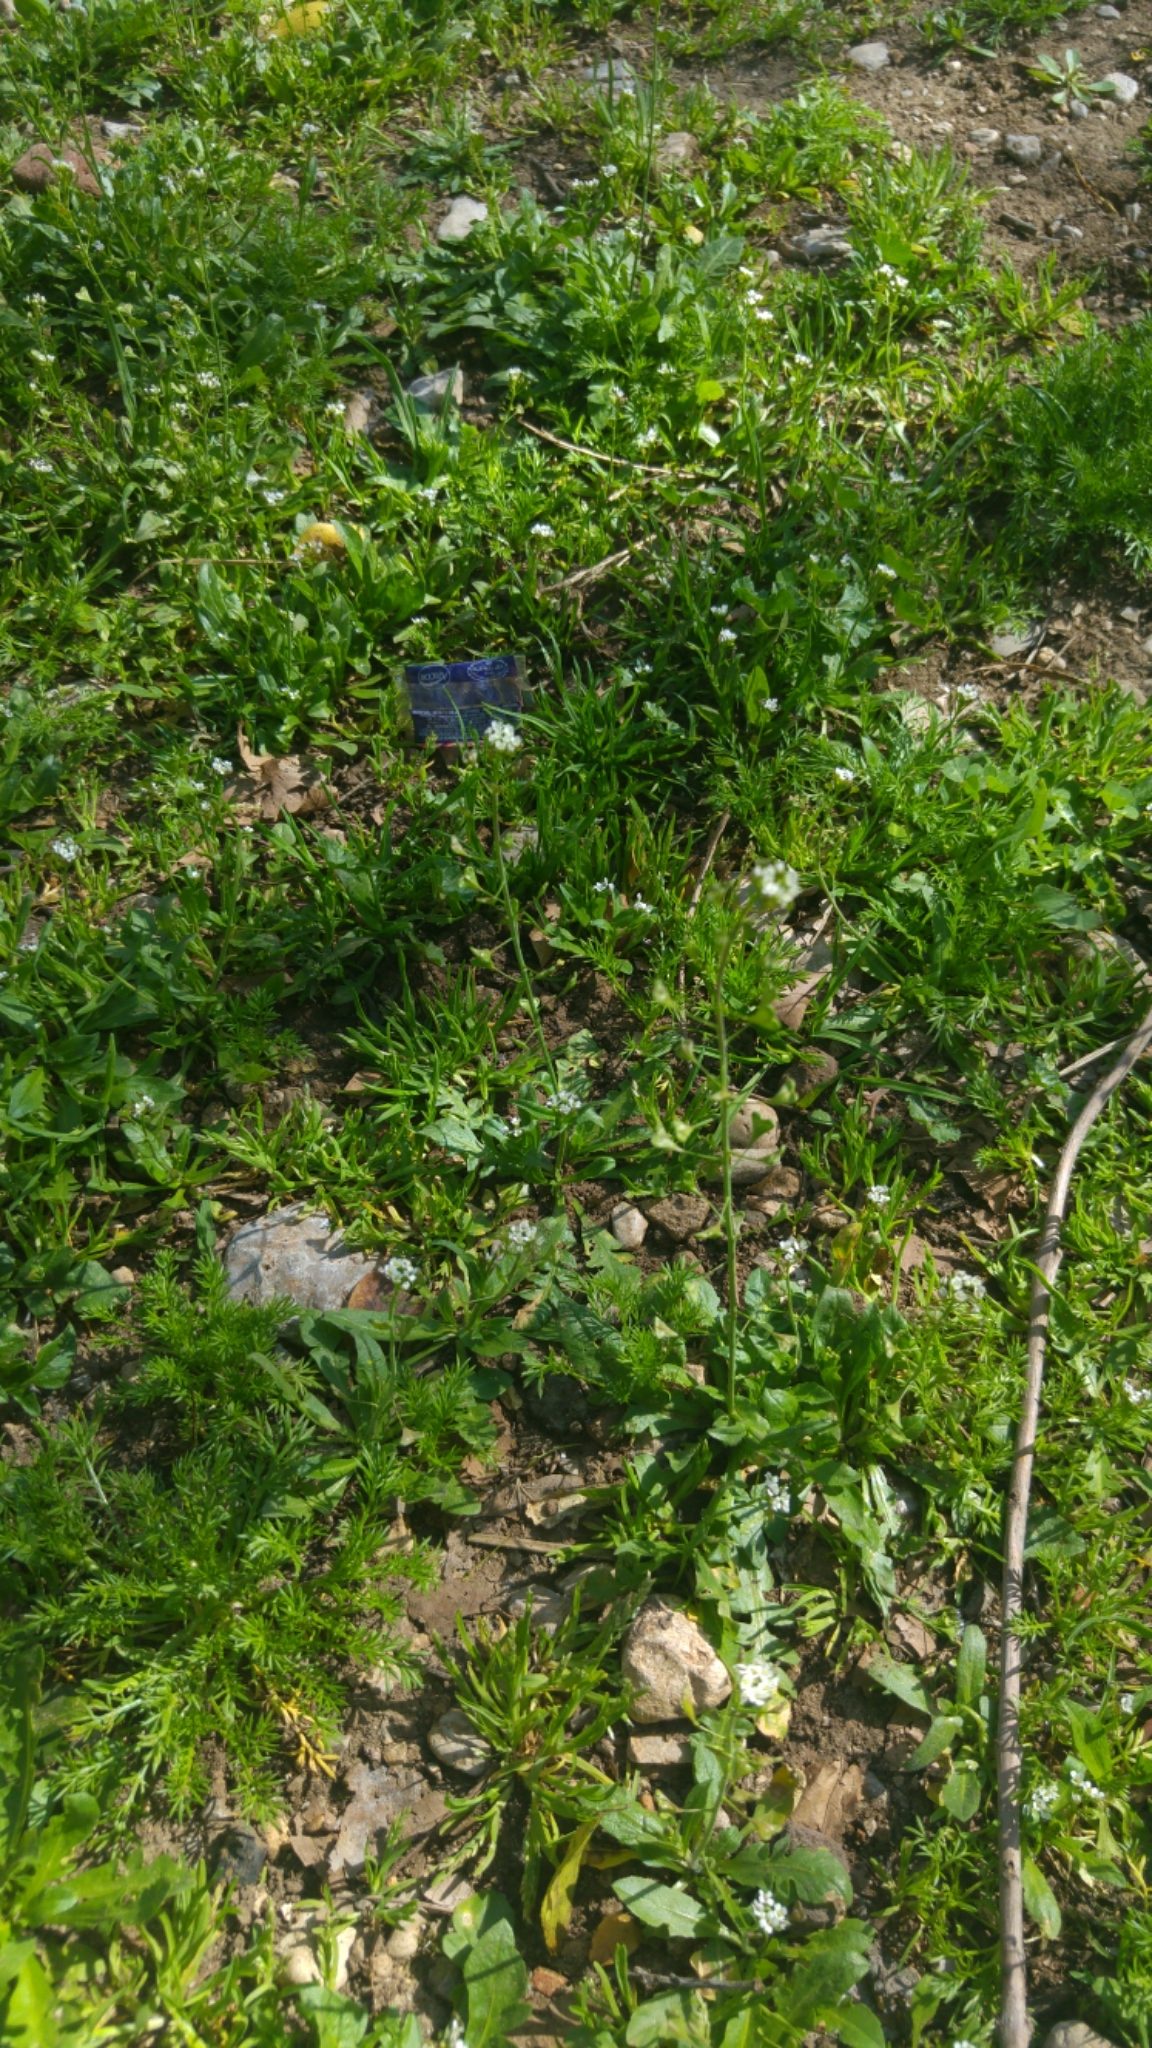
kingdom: Plantae
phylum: Tracheophyta
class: Magnoliopsida
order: Brassicales
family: Brassicaceae
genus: Capsella
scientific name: Capsella bursa-pastoris
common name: Shepherd's purse
